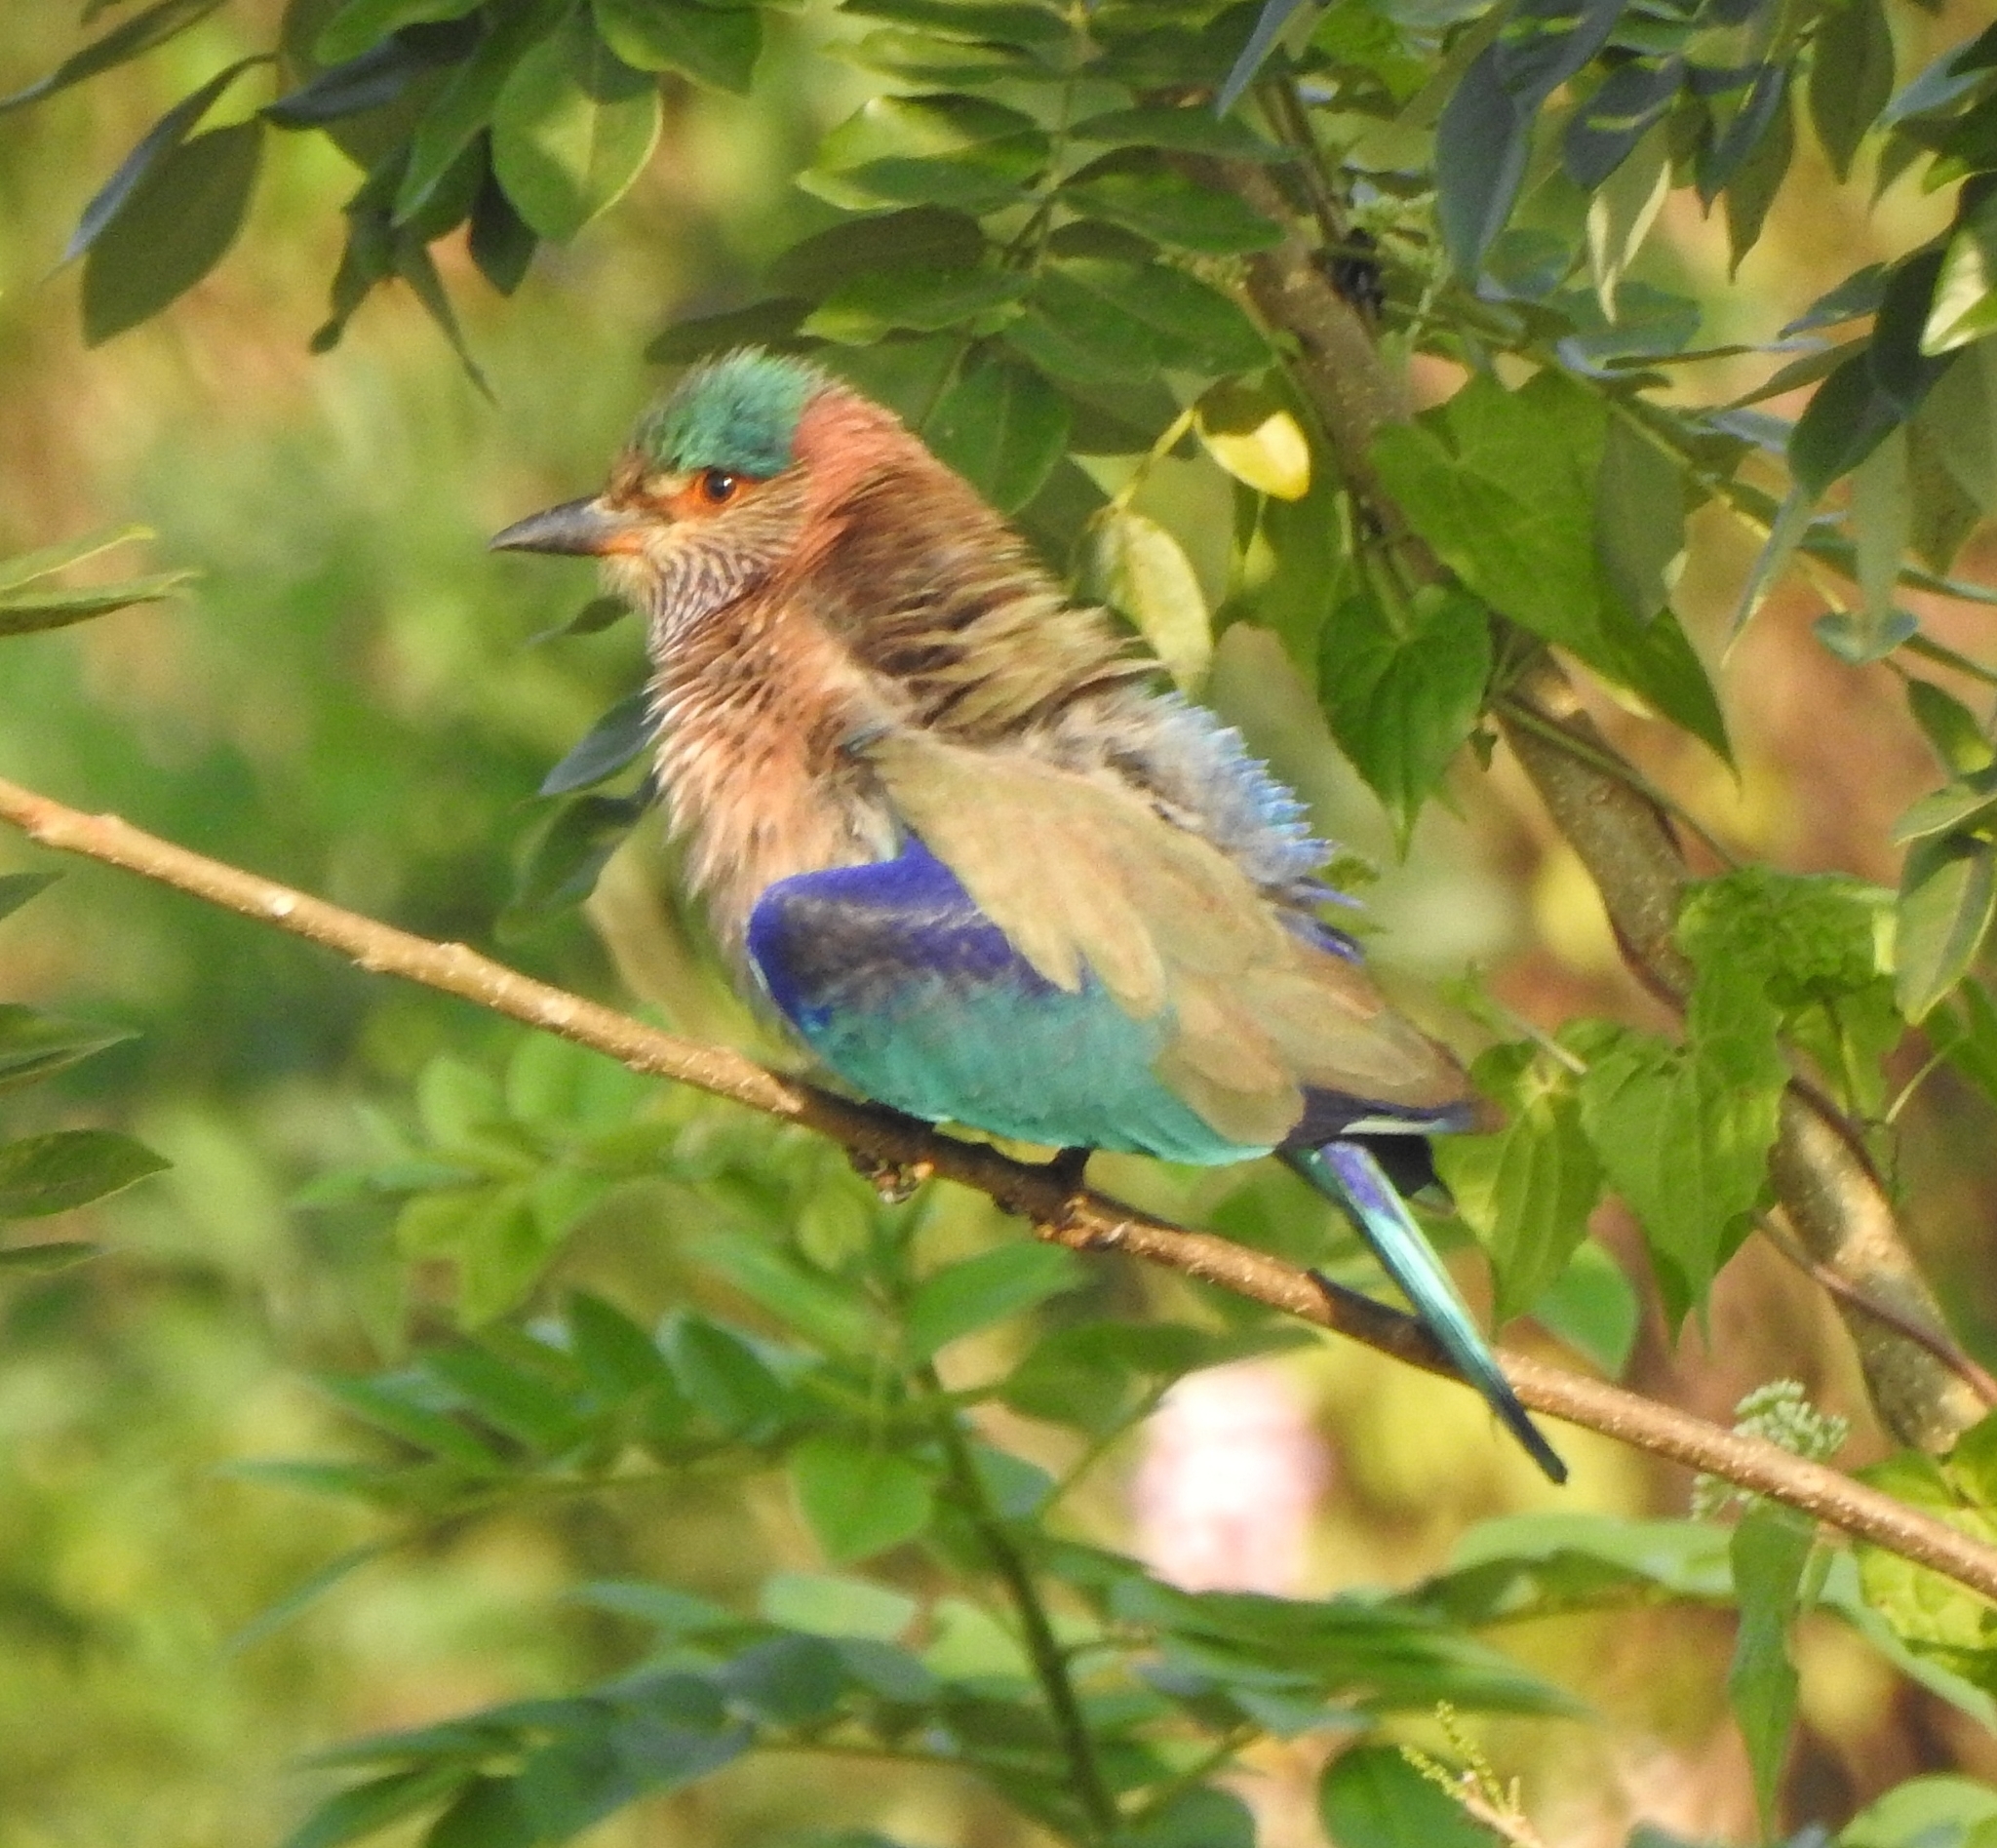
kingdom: Animalia
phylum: Chordata
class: Aves
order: Coraciiformes
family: Coraciidae
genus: Coracias
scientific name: Coracias benghalensis
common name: Indian roller
